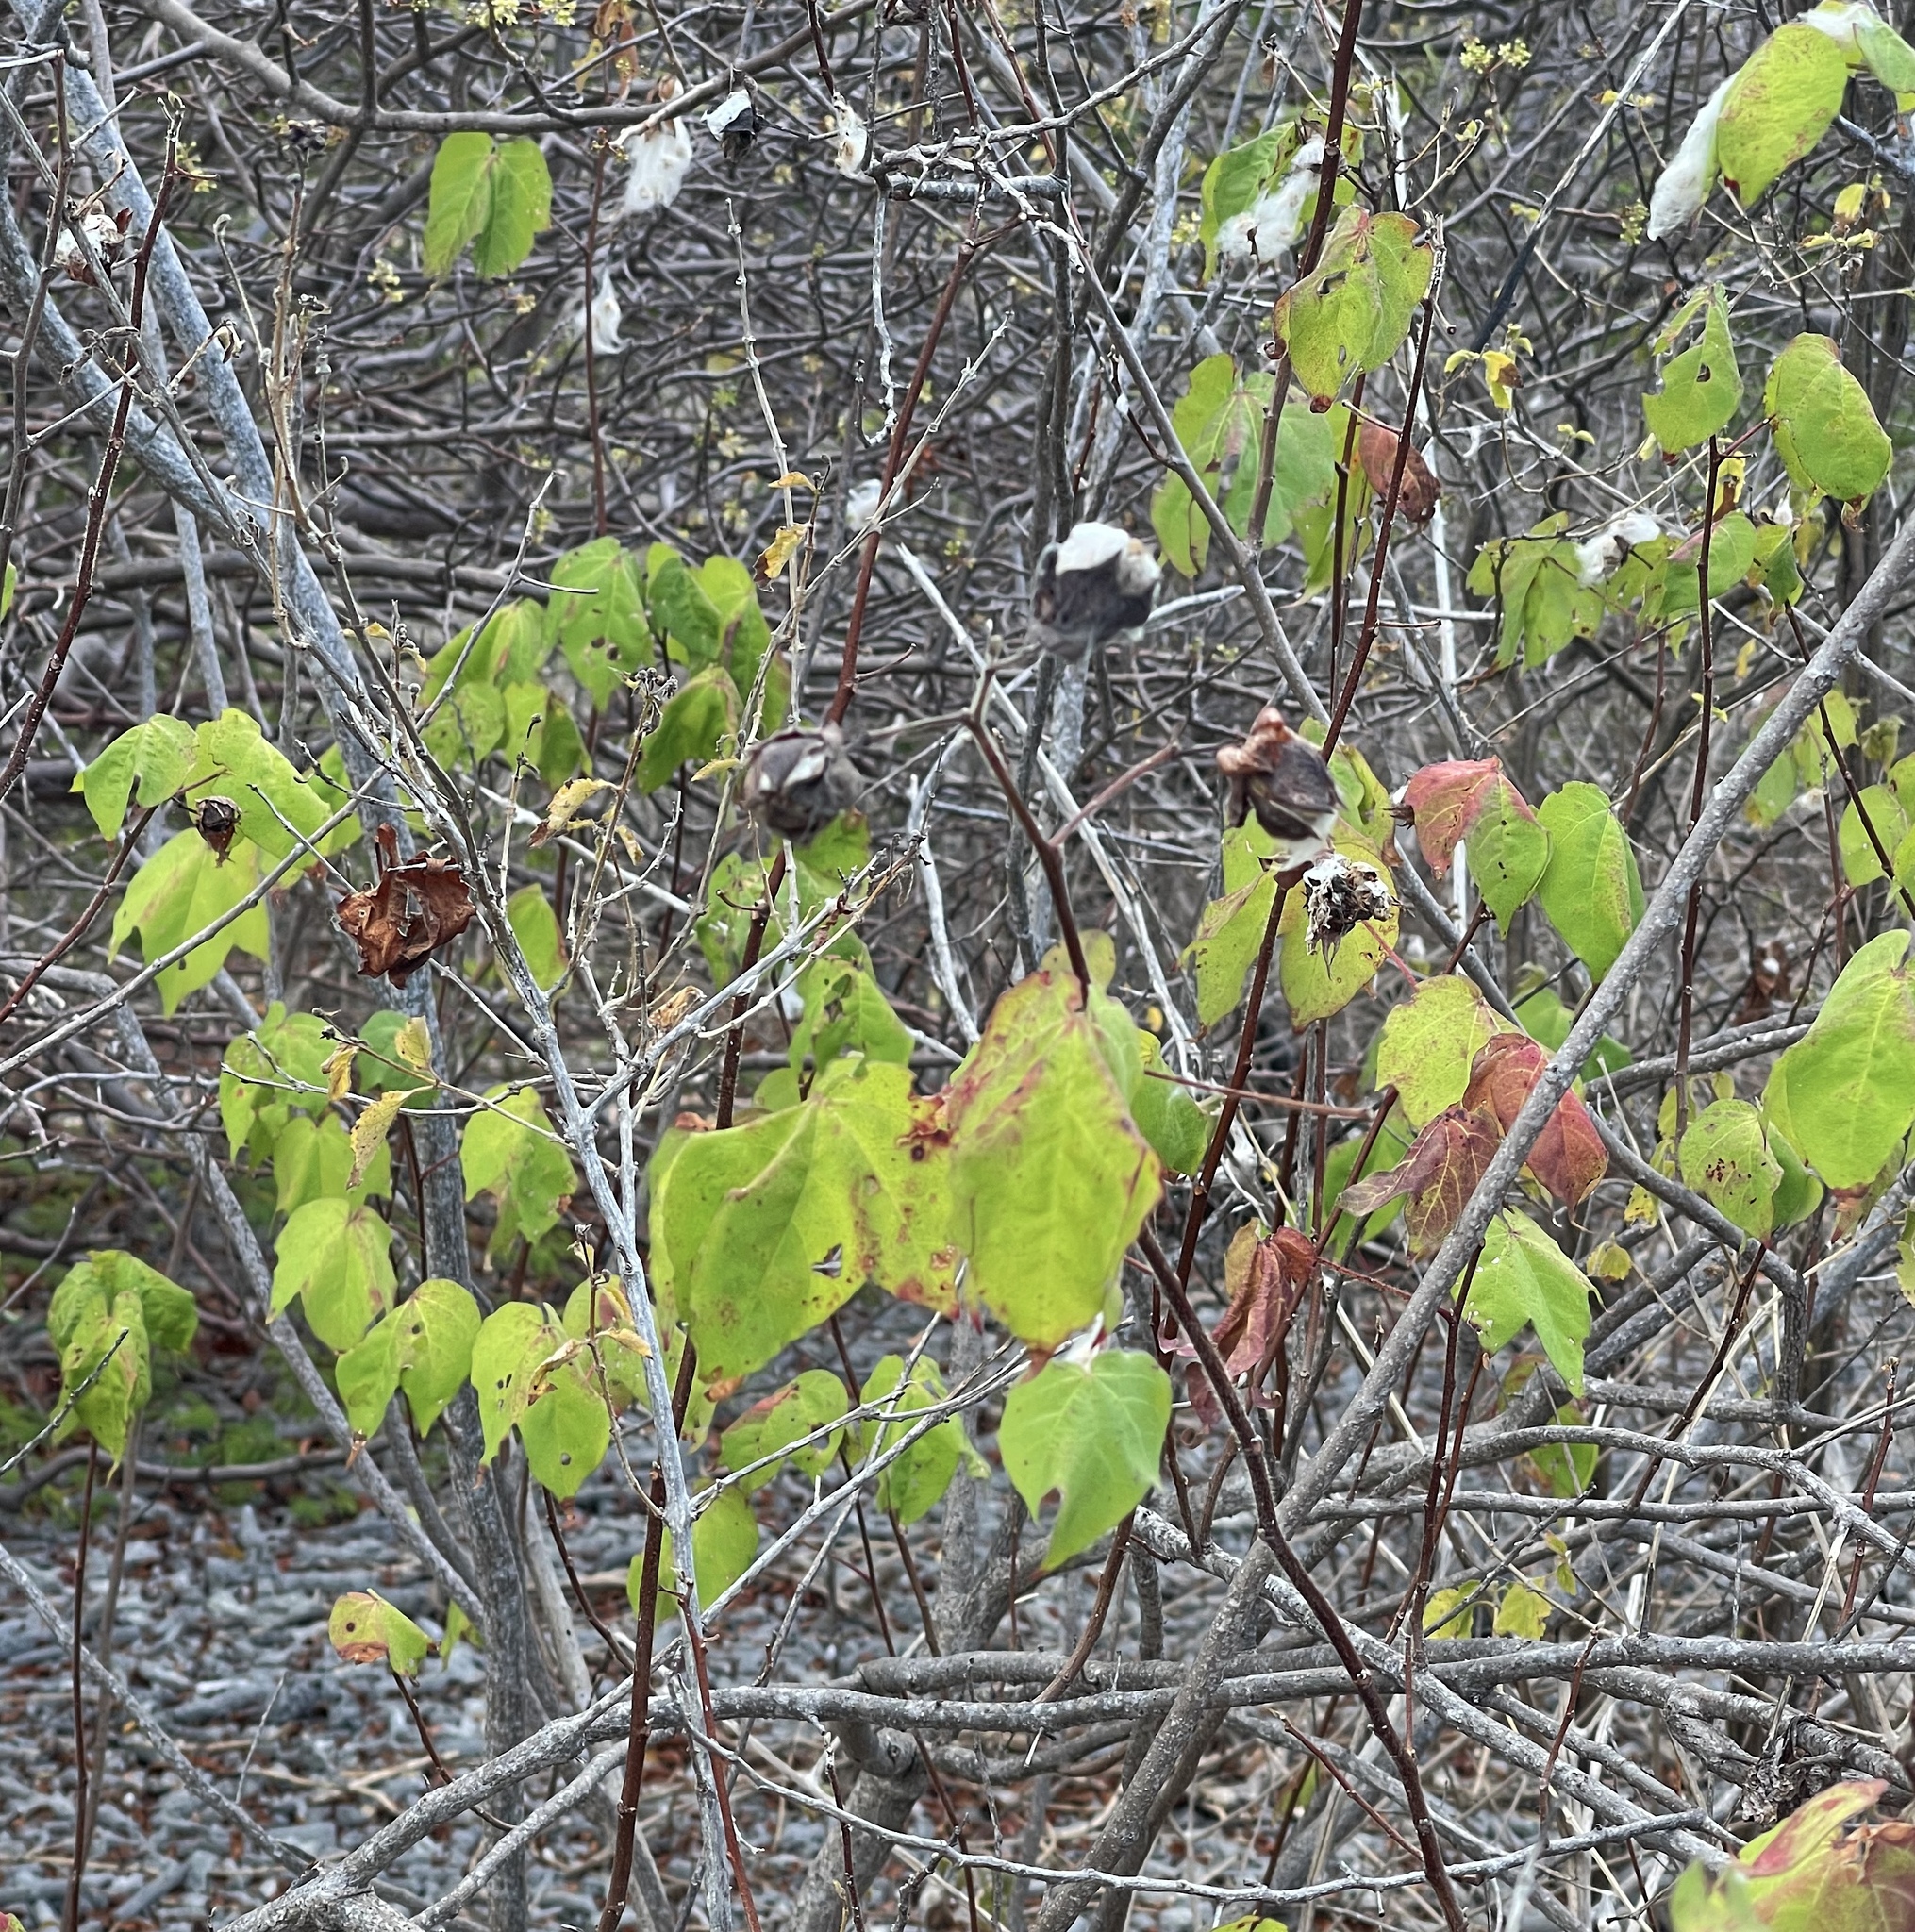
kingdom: Plantae
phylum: Tracheophyta
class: Magnoliopsida
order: Malvales
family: Malvaceae
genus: Gossypium
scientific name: Gossypium hirsutum
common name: Cotton
